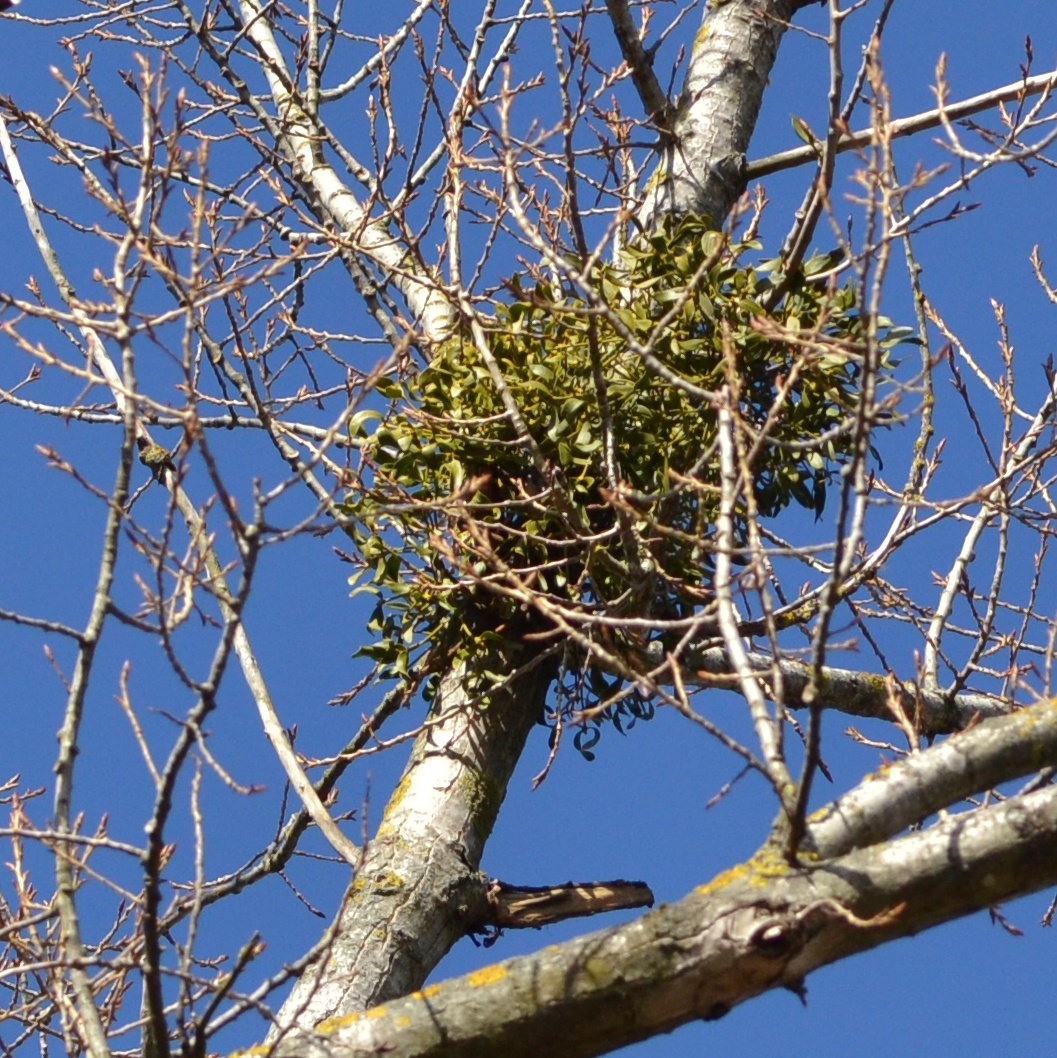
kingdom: Plantae
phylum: Tracheophyta
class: Magnoliopsida
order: Santalales
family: Viscaceae
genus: Viscum
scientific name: Viscum album
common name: Mistletoe
